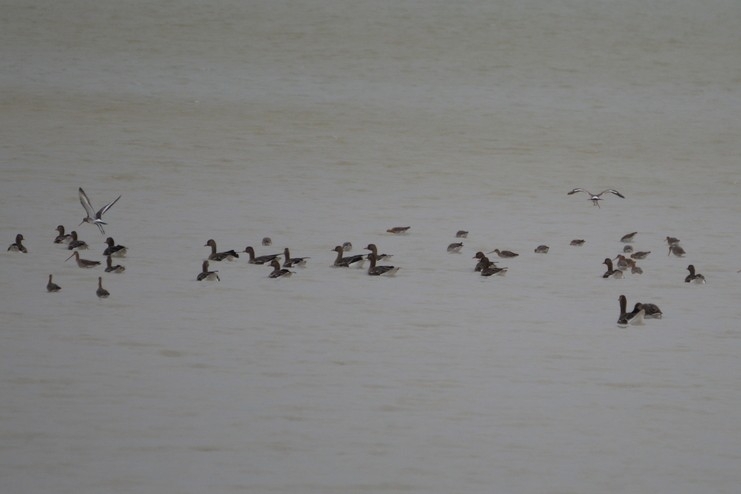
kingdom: Animalia
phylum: Chordata
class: Aves
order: Anseriformes
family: Anatidae
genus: Anser
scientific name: Anser albifrons
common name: Greater white-fronted goose
